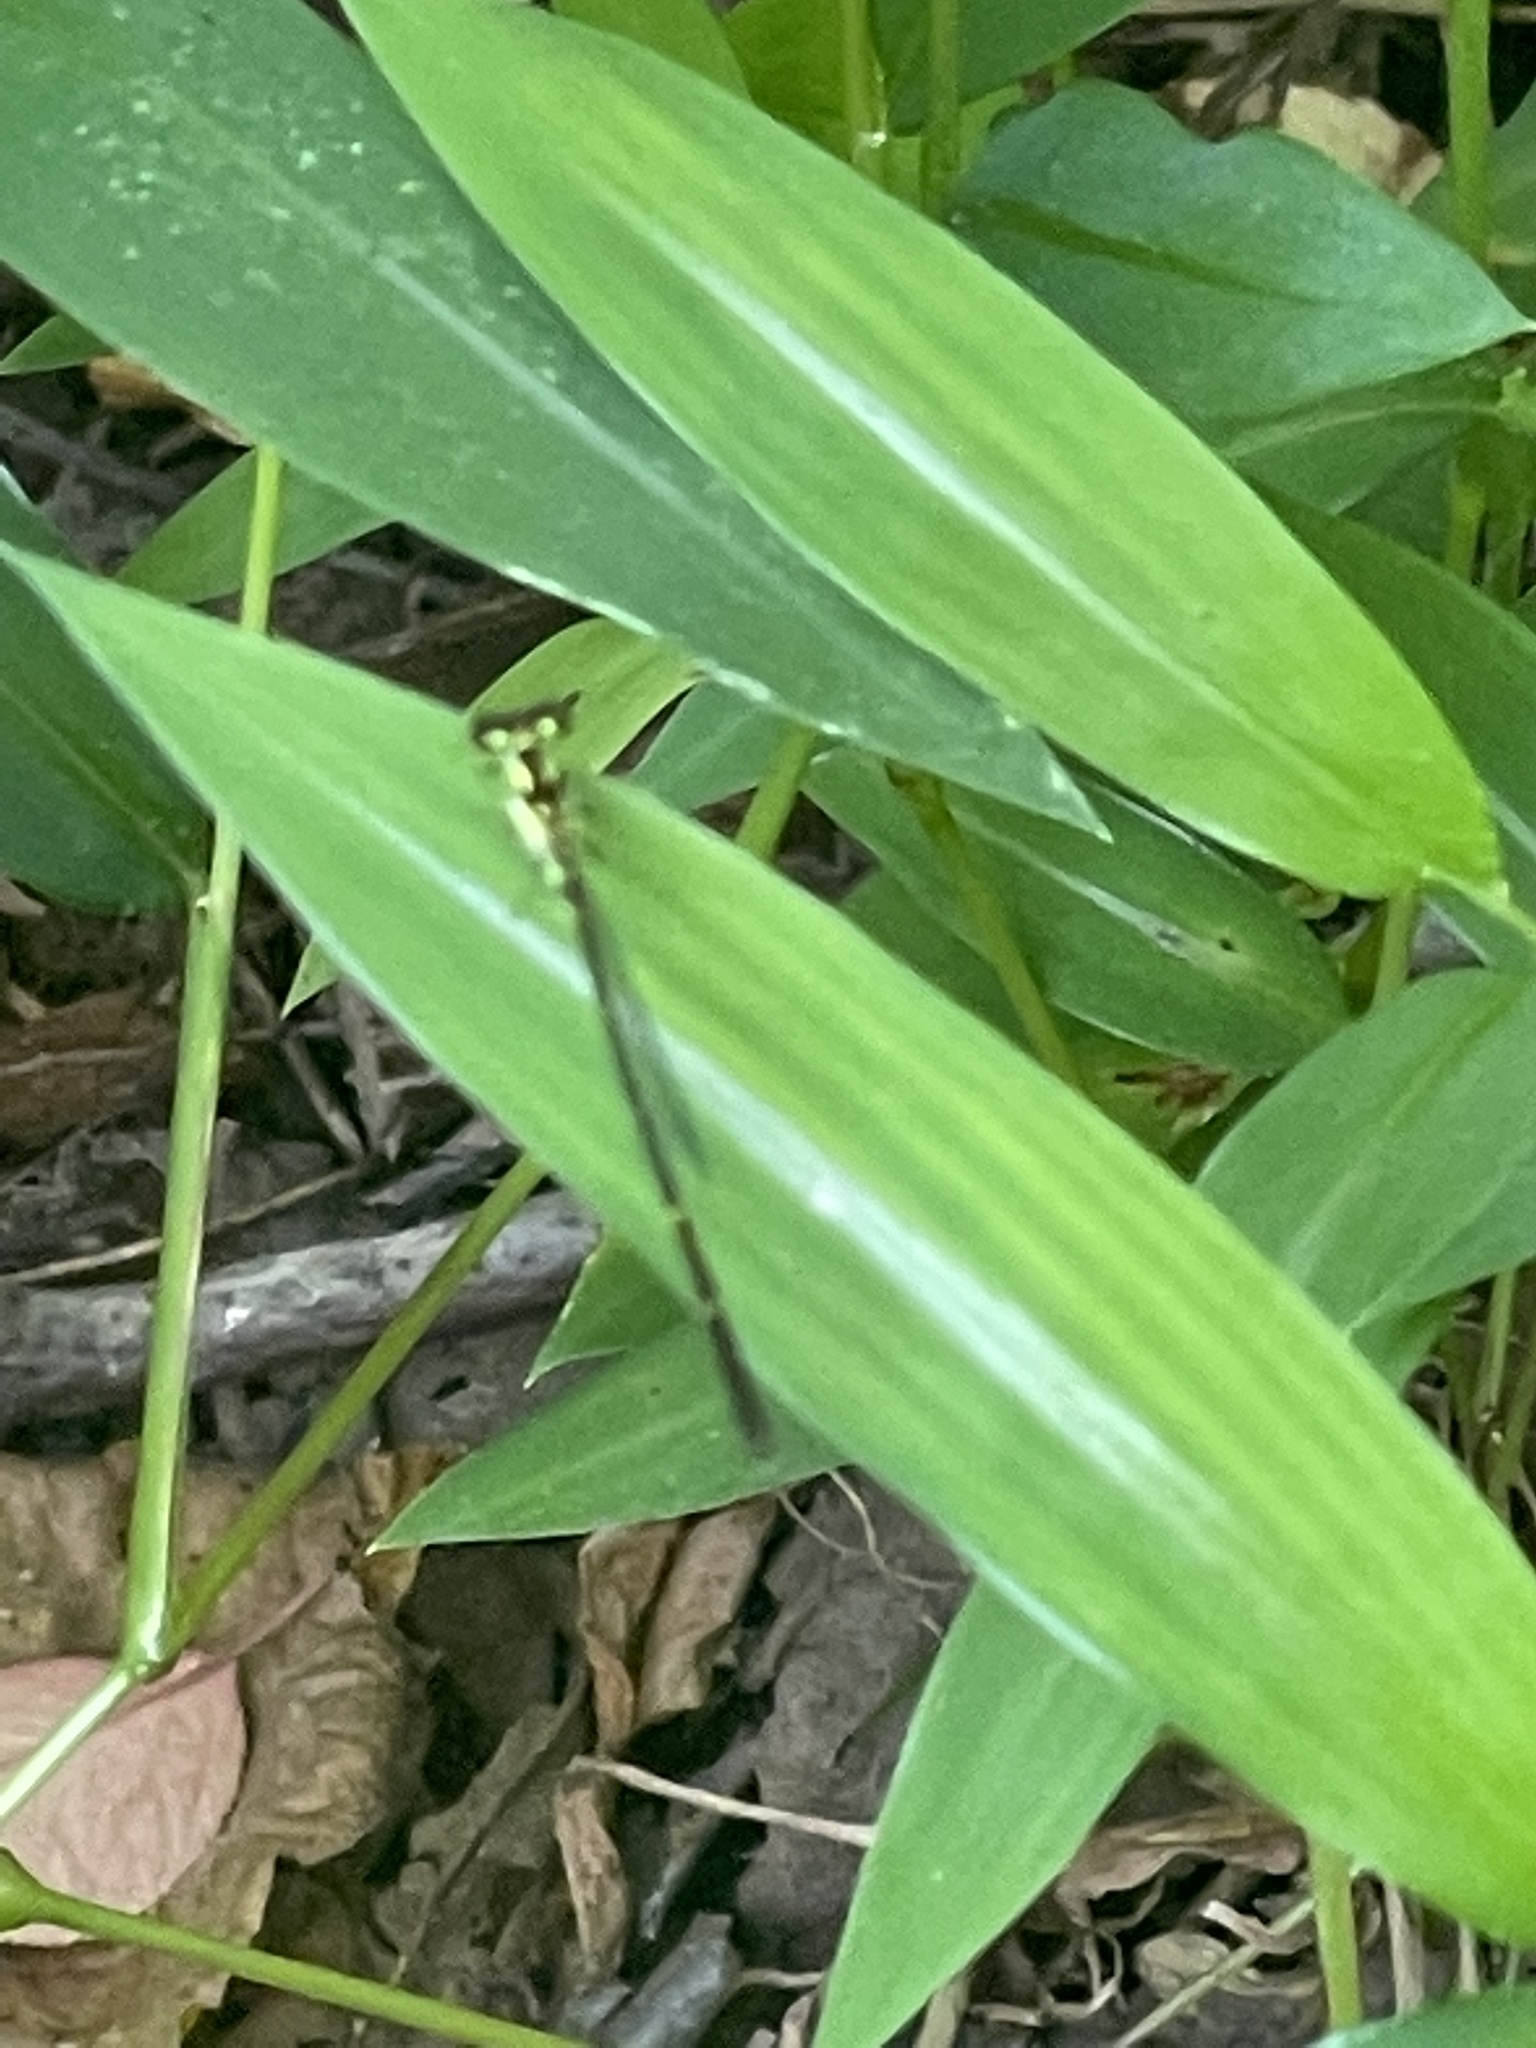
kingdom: Animalia
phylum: Arthropoda
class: Insecta
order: Odonata
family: Coenagrionidae
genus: Ischnura
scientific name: Ischnura posita
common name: Fragile forktail
